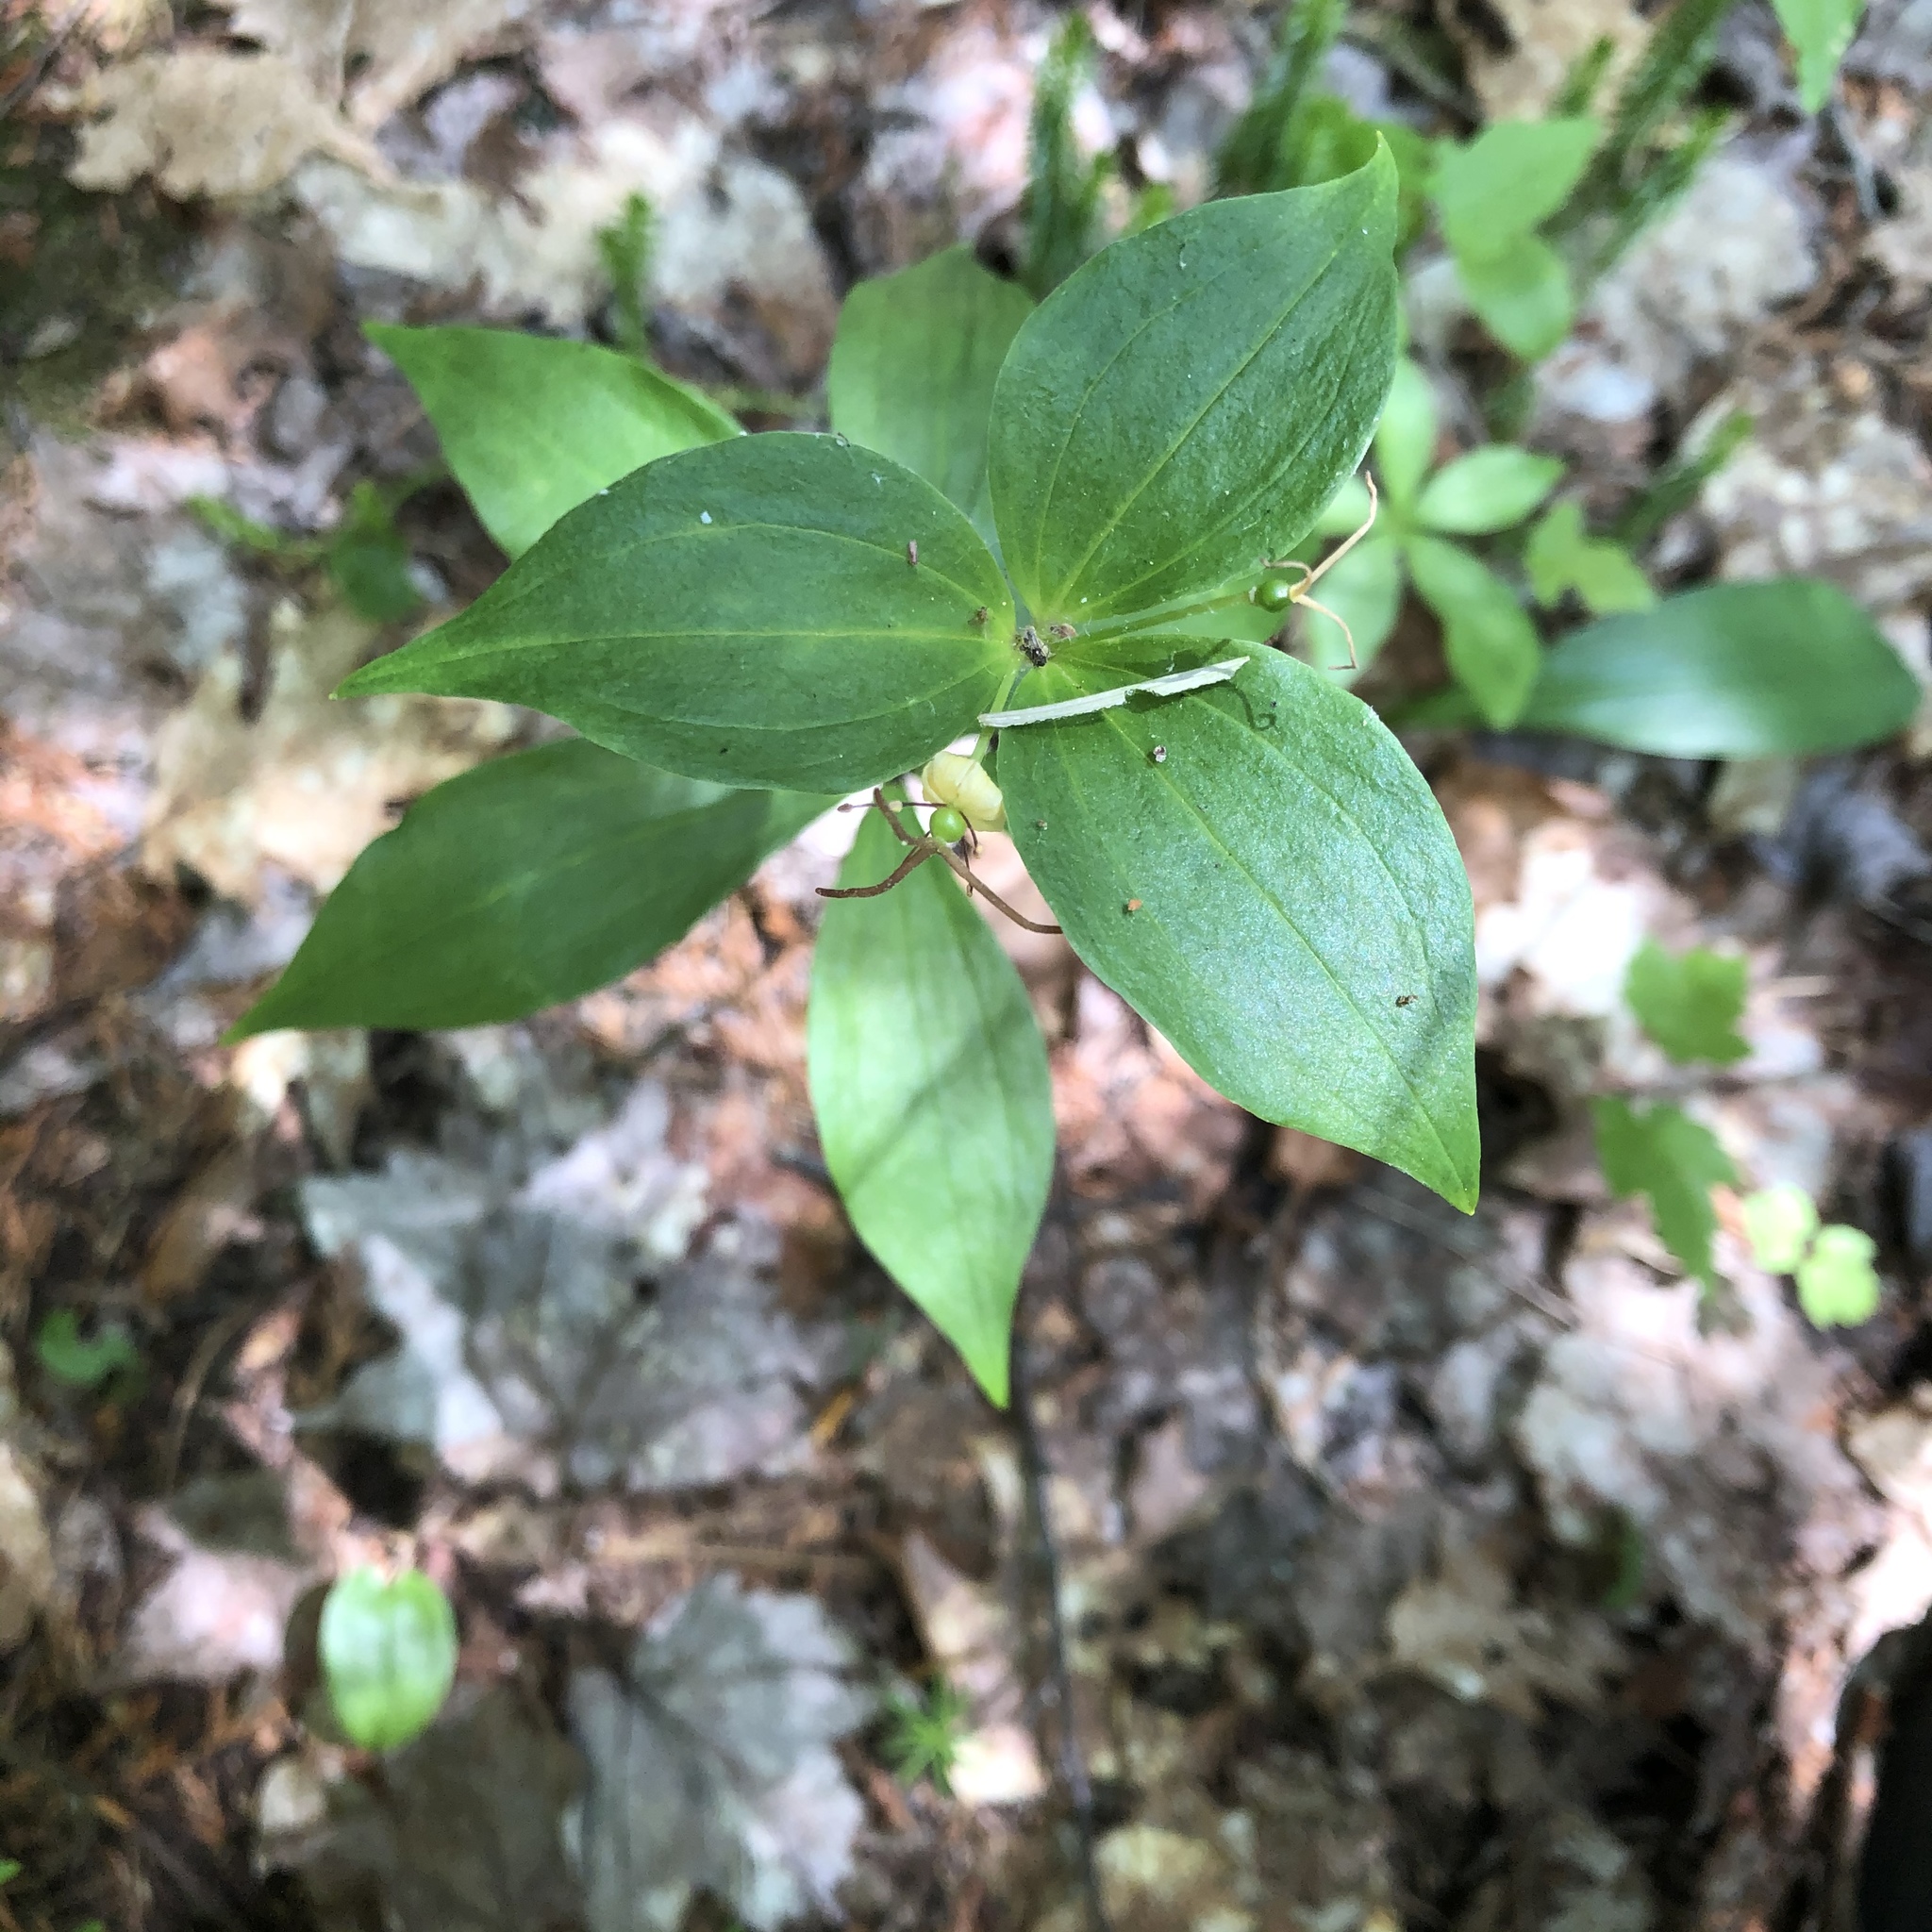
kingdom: Plantae
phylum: Tracheophyta
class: Liliopsida
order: Liliales
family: Liliaceae
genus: Medeola
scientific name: Medeola virginiana
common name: Indian cucumber-root
